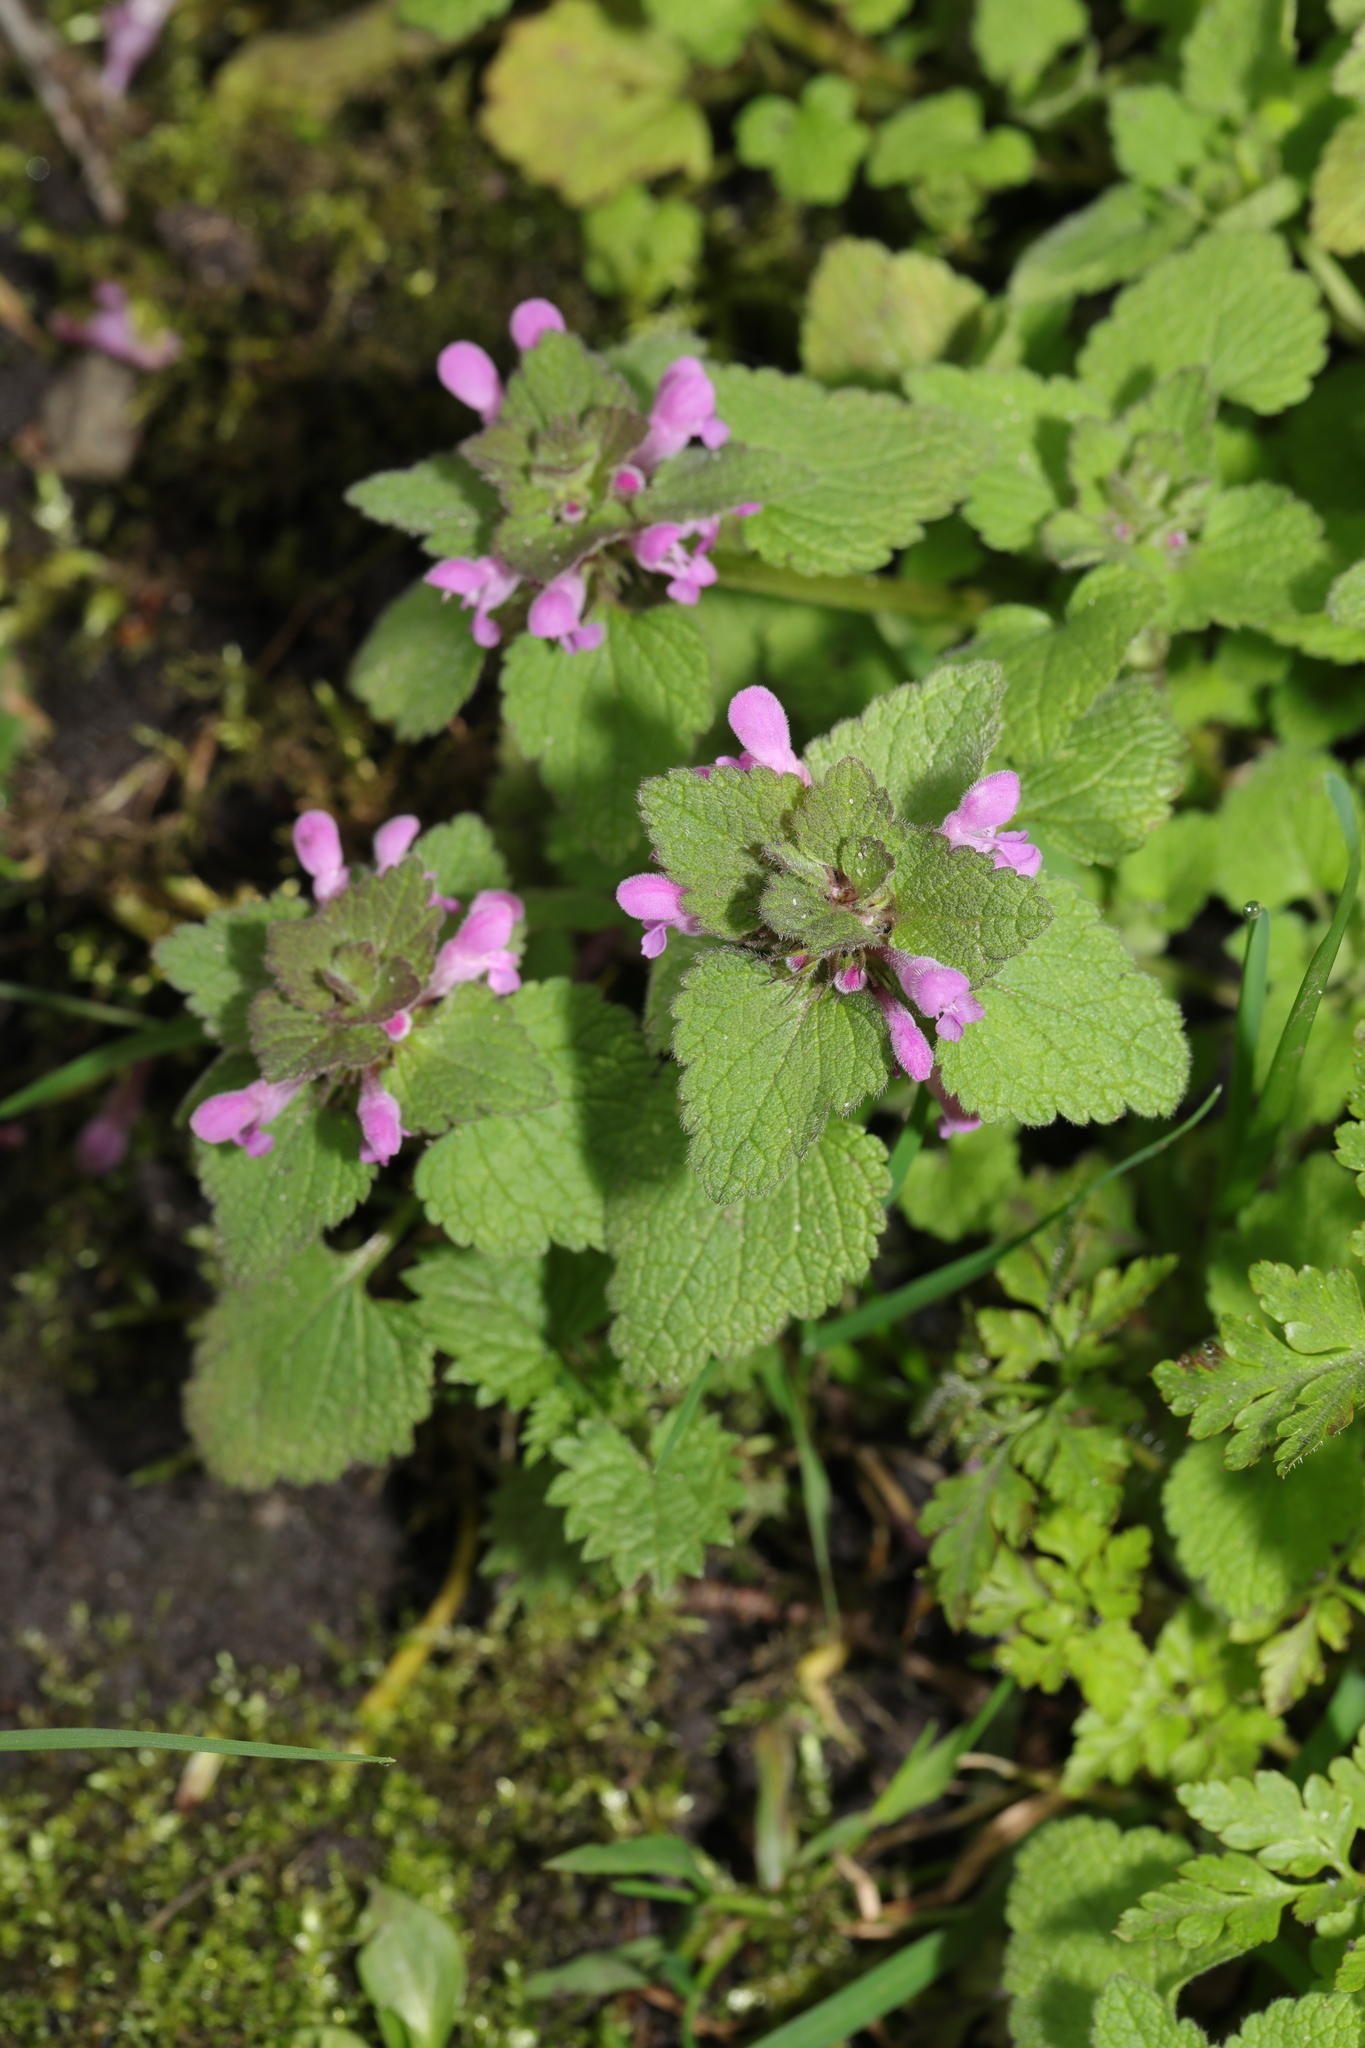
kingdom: Plantae
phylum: Tracheophyta
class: Magnoliopsida
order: Lamiales
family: Lamiaceae
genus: Lamium
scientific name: Lamium purpureum
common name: Red dead-nettle
